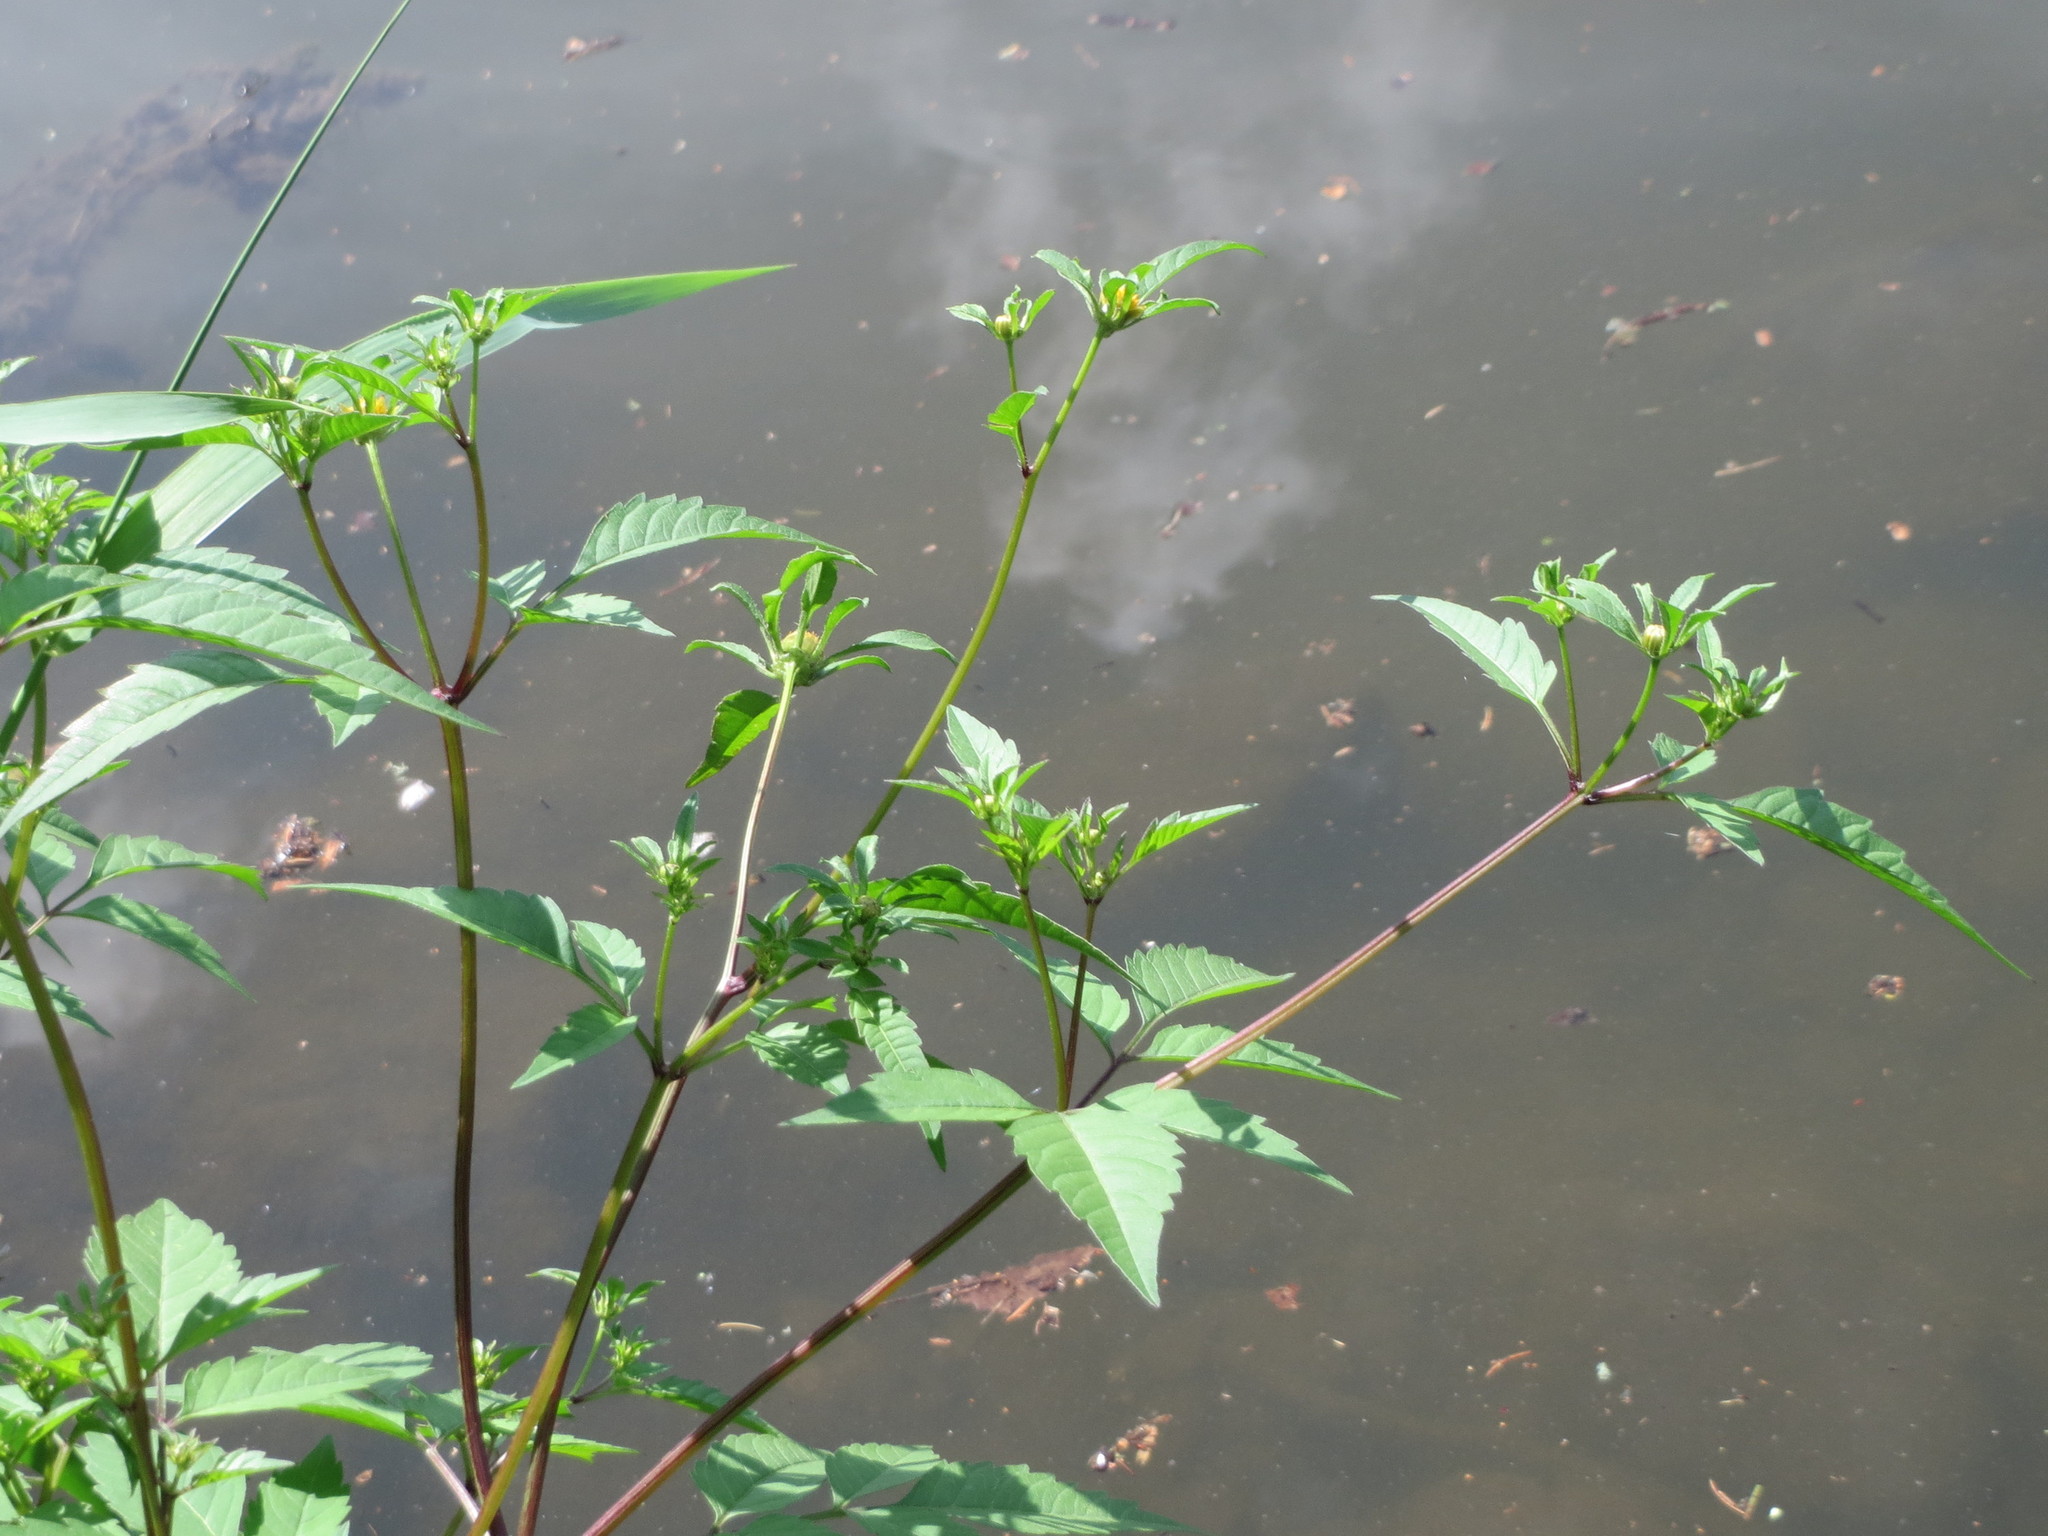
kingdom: Plantae
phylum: Tracheophyta
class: Magnoliopsida
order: Asterales
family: Asteraceae
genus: Bidens
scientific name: Bidens frondosa
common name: Beggarticks
